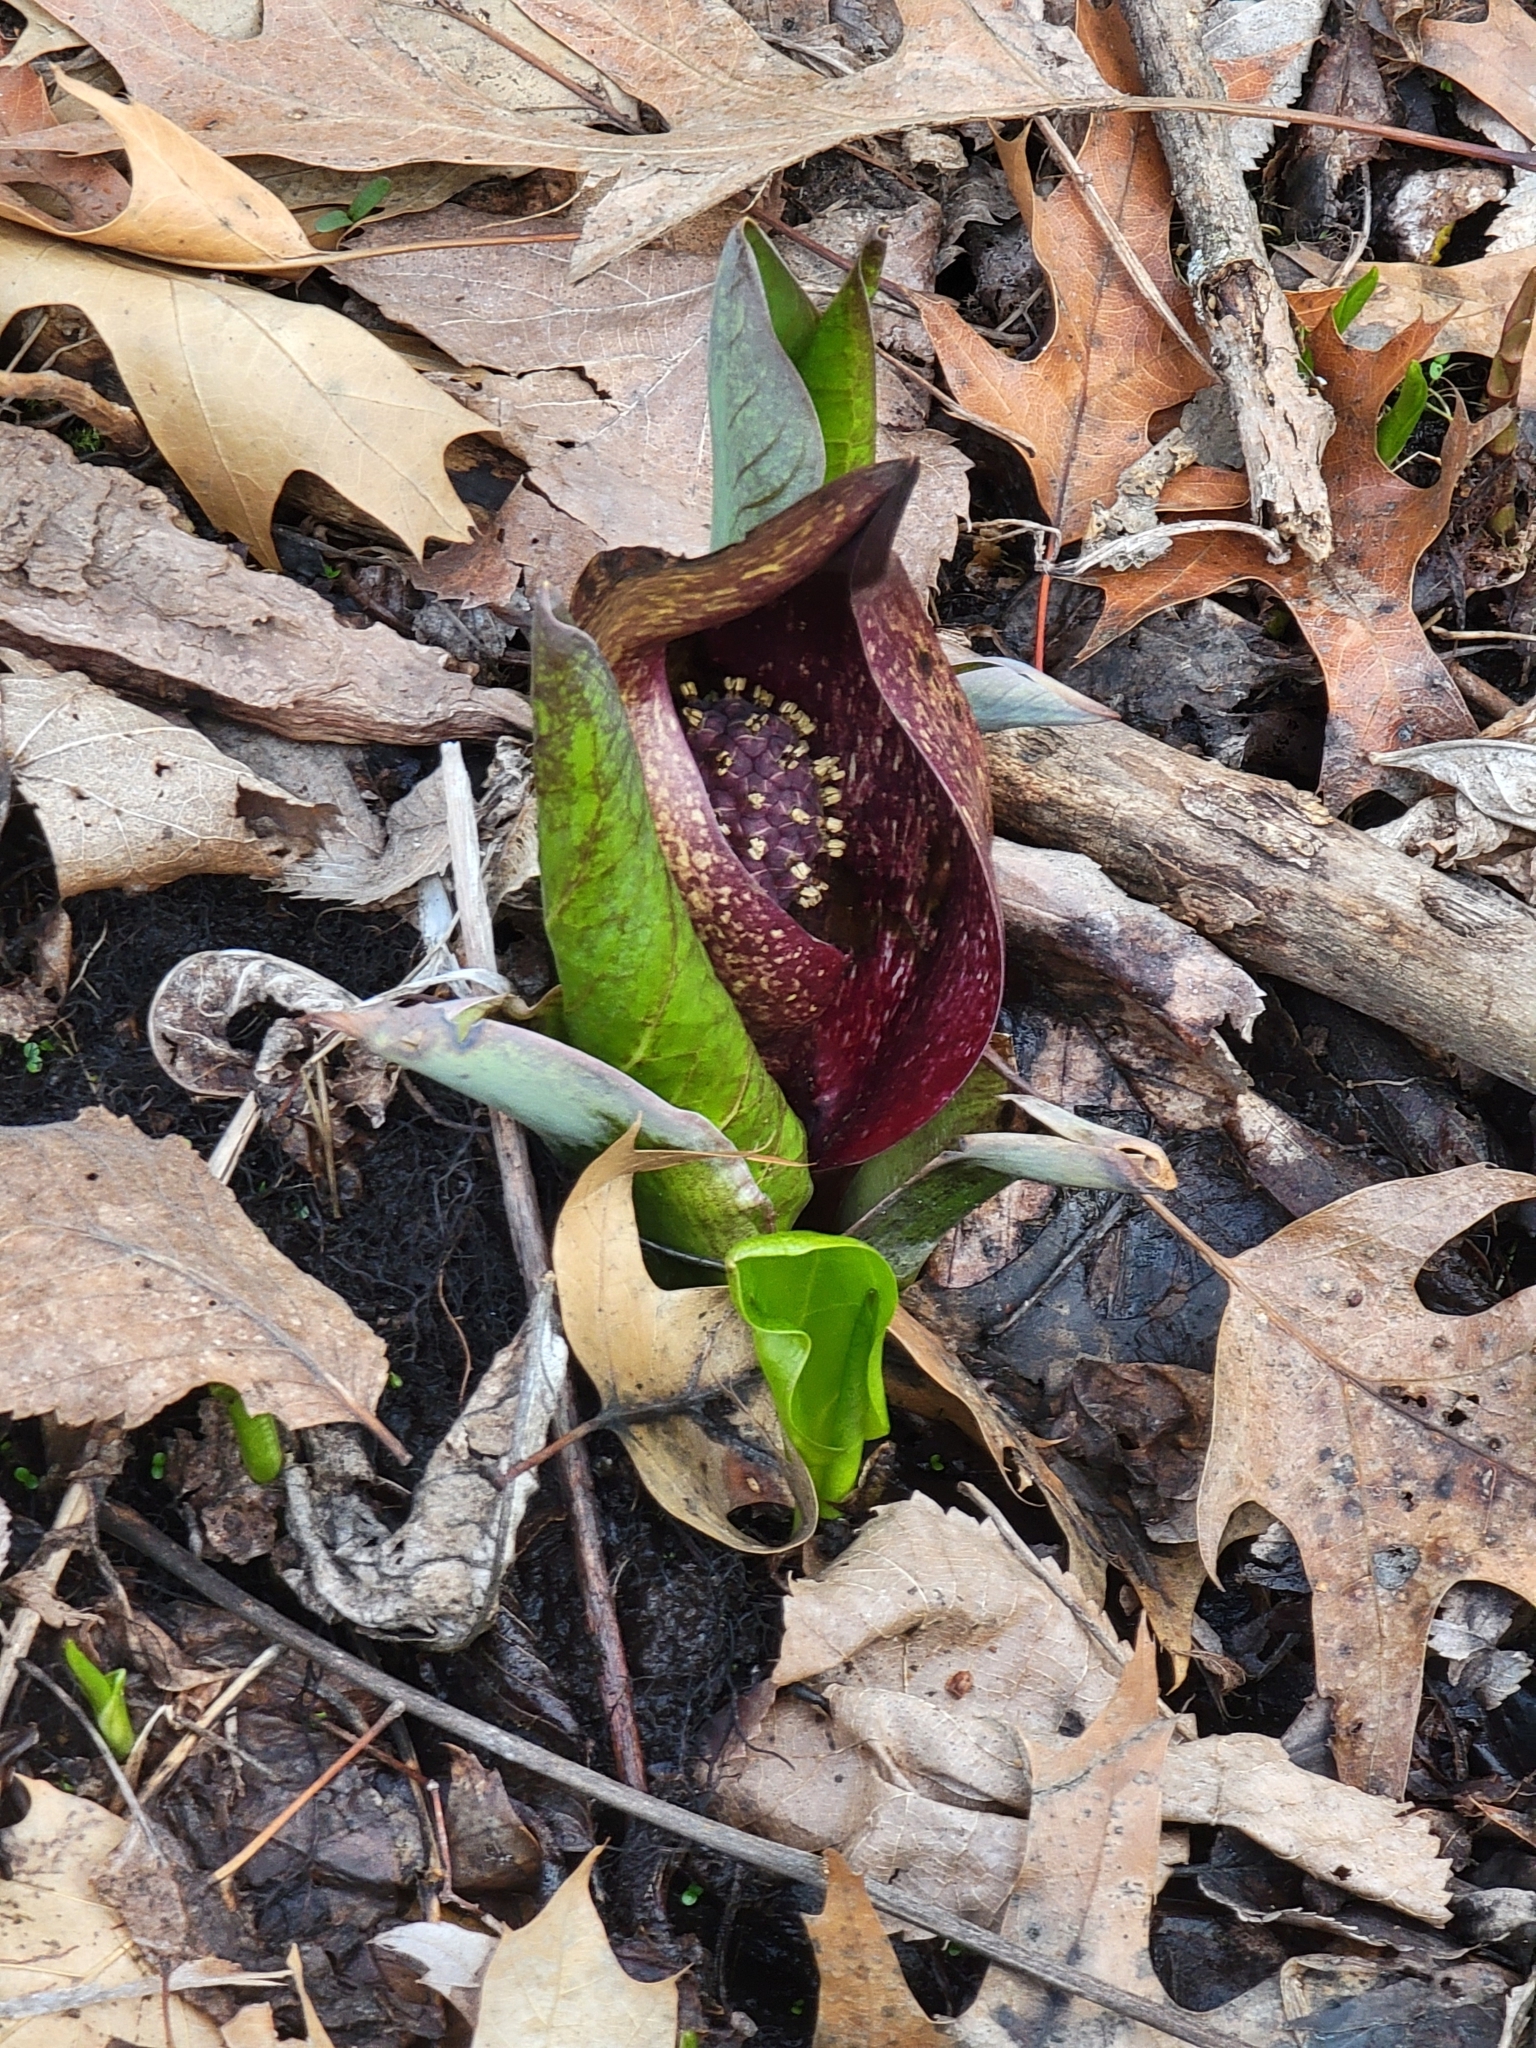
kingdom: Plantae
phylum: Tracheophyta
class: Liliopsida
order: Alismatales
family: Araceae
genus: Symplocarpus
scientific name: Symplocarpus foetidus
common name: Eastern skunk cabbage
